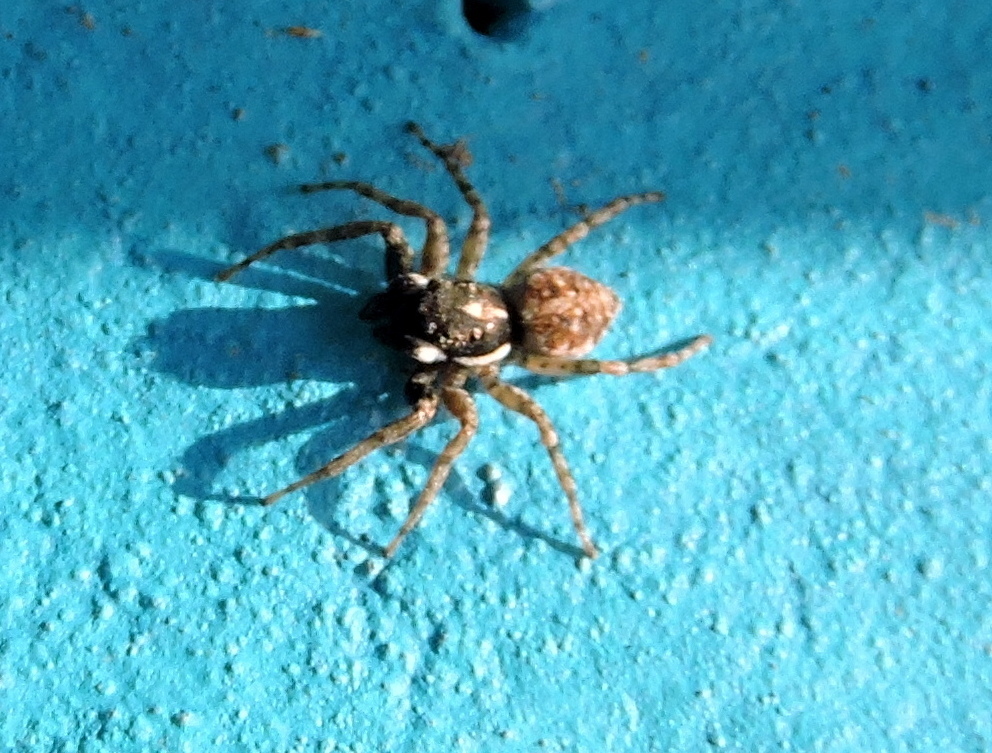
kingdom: Animalia
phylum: Arthropoda
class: Arachnida
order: Araneae
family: Salticidae
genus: Menemerus
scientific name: Menemerus semilimbatus
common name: Jumping spider
